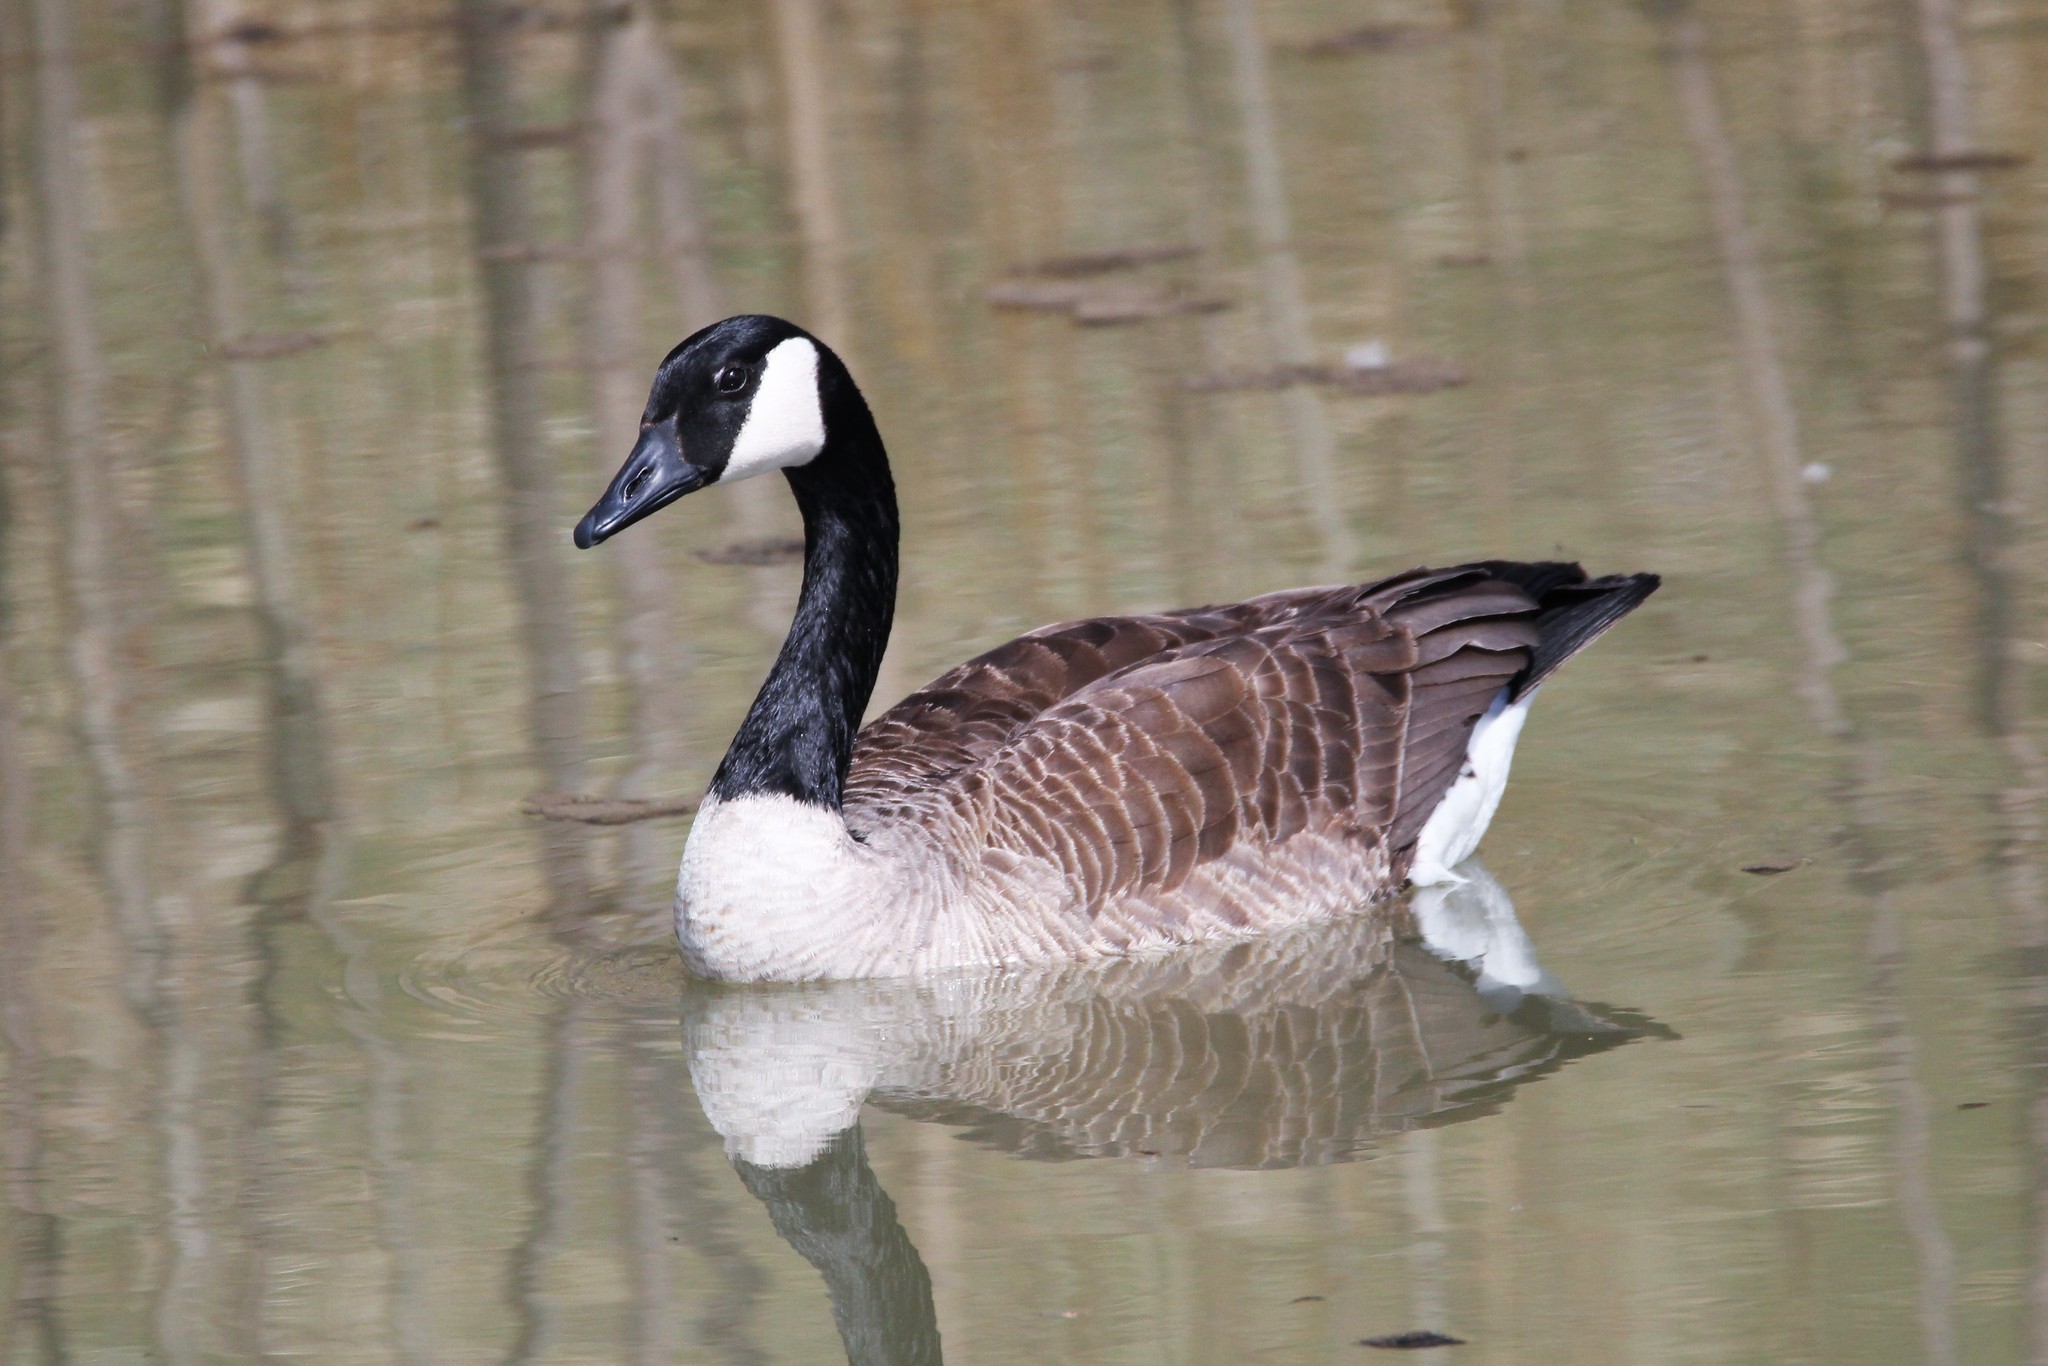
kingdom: Animalia
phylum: Chordata
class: Aves
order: Anseriformes
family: Anatidae
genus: Branta
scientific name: Branta canadensis
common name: Canada goose
